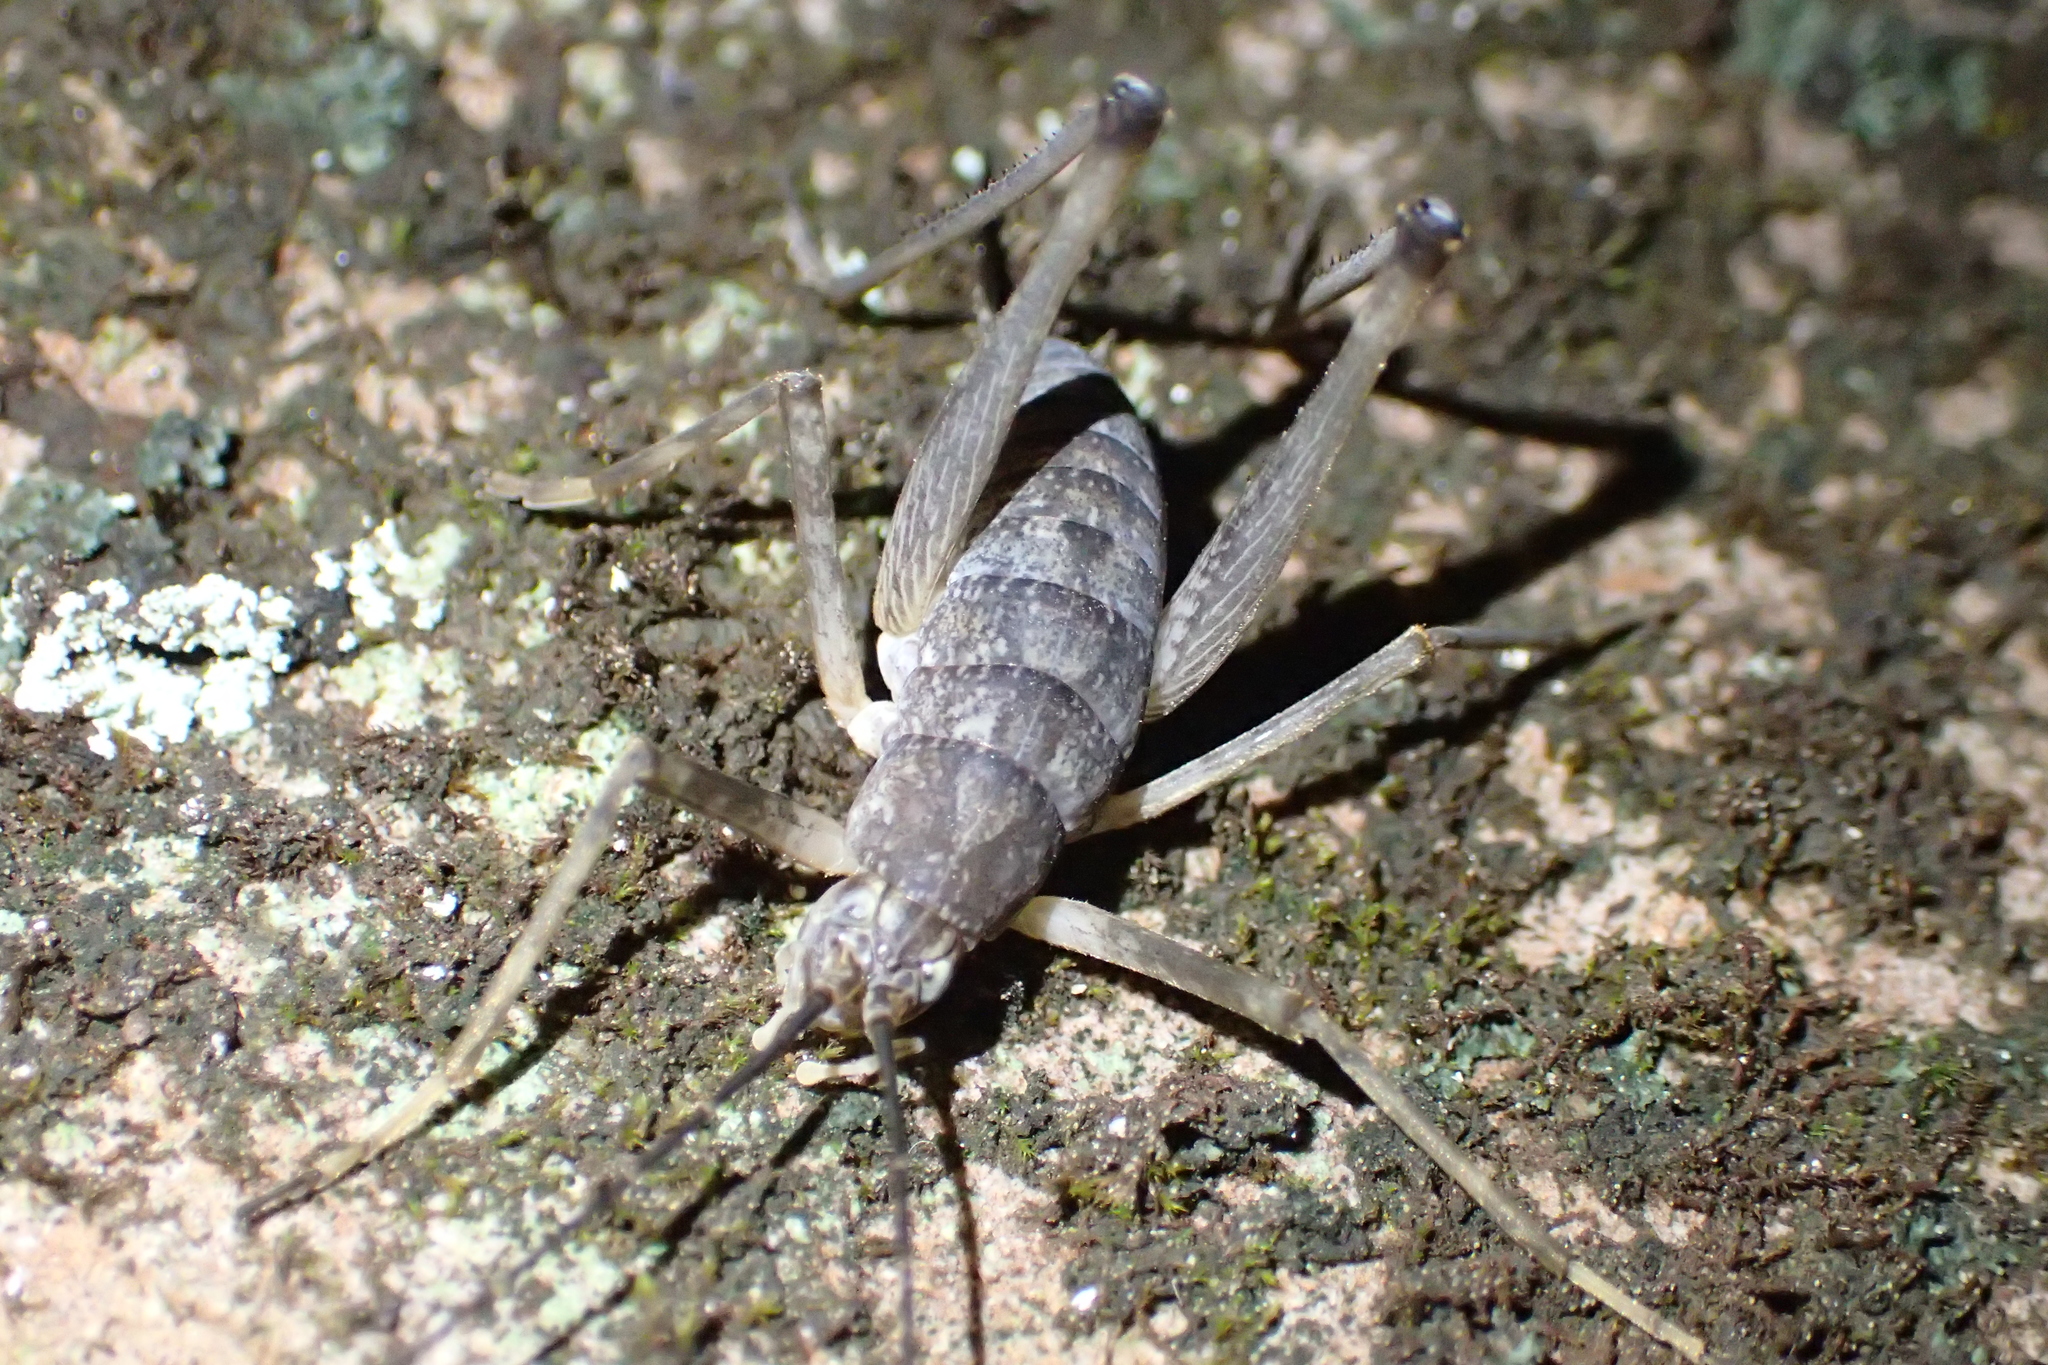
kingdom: Animalia
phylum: Arthropoda
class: Insecta
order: Orthoptera
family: Rhaphidophoridae
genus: Petrotettix
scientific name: Petrotettix cupolaensis
